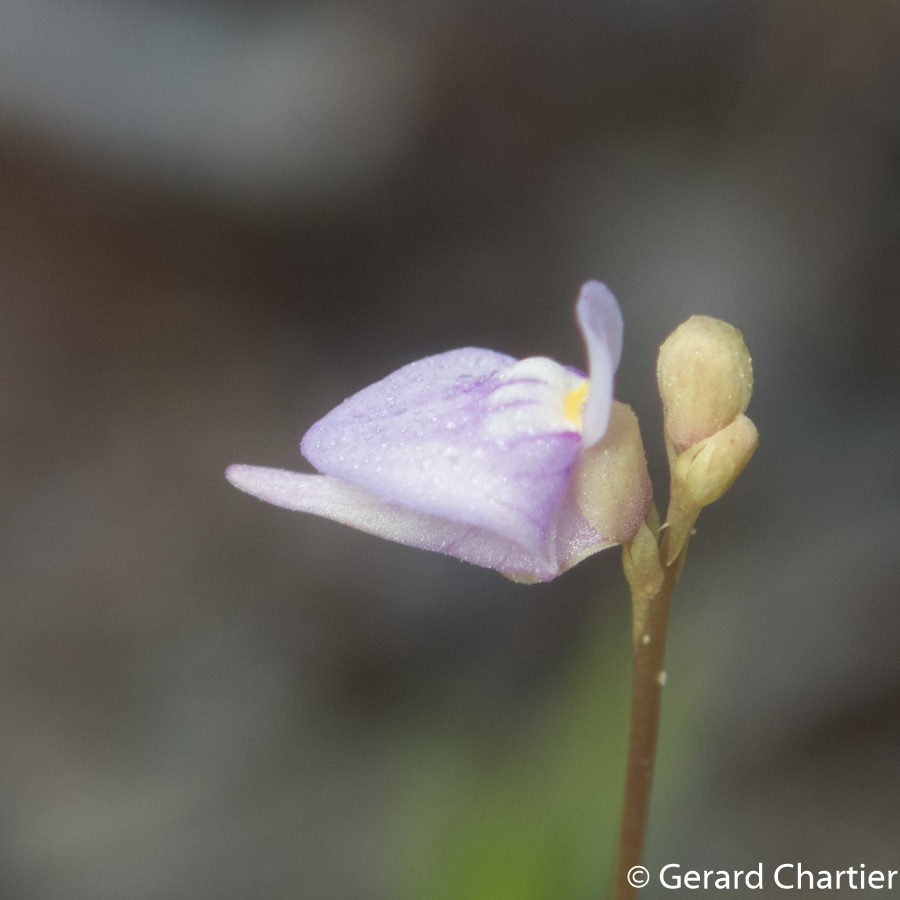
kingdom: Plantae
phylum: Tracheophyta
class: Magnoliopsida
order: Lamiales
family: Lentibulariaceae
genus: Utricularia
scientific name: Utricularia caerulea
